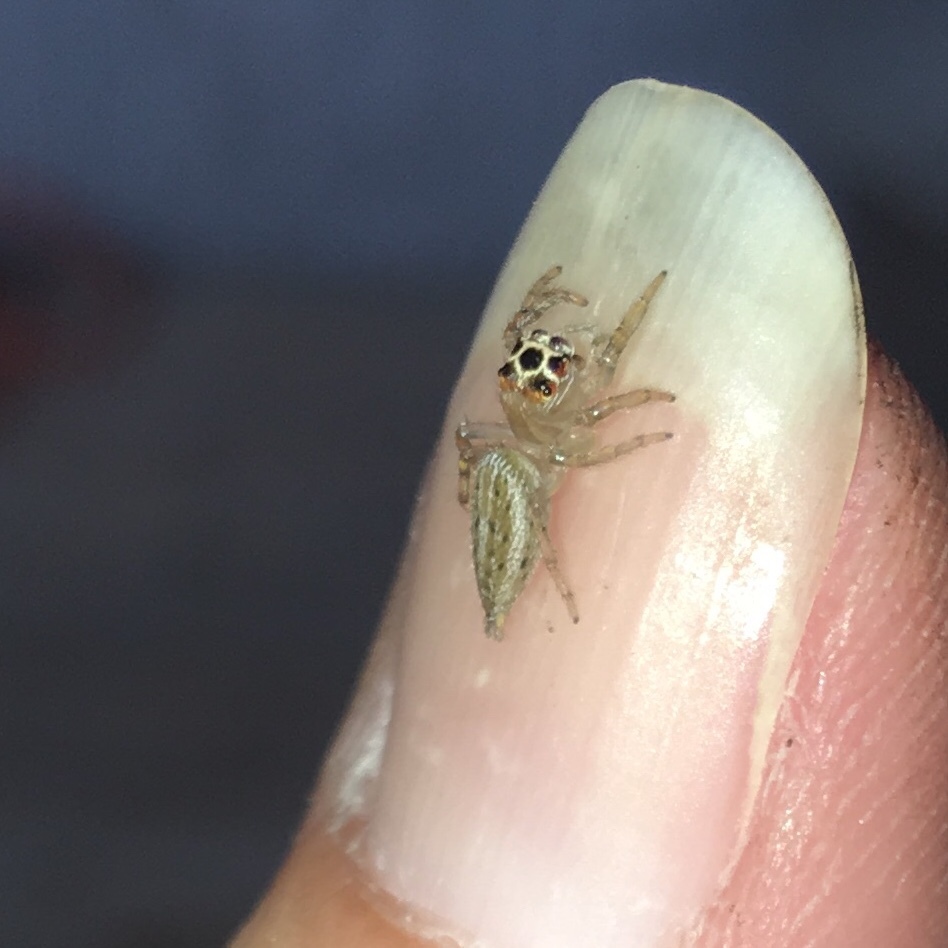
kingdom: Animalia
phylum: Arthropoda
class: Arachnida
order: Araneae
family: Salticidae
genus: Colonus
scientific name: Colonus sylvanus
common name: Jumping spiders
